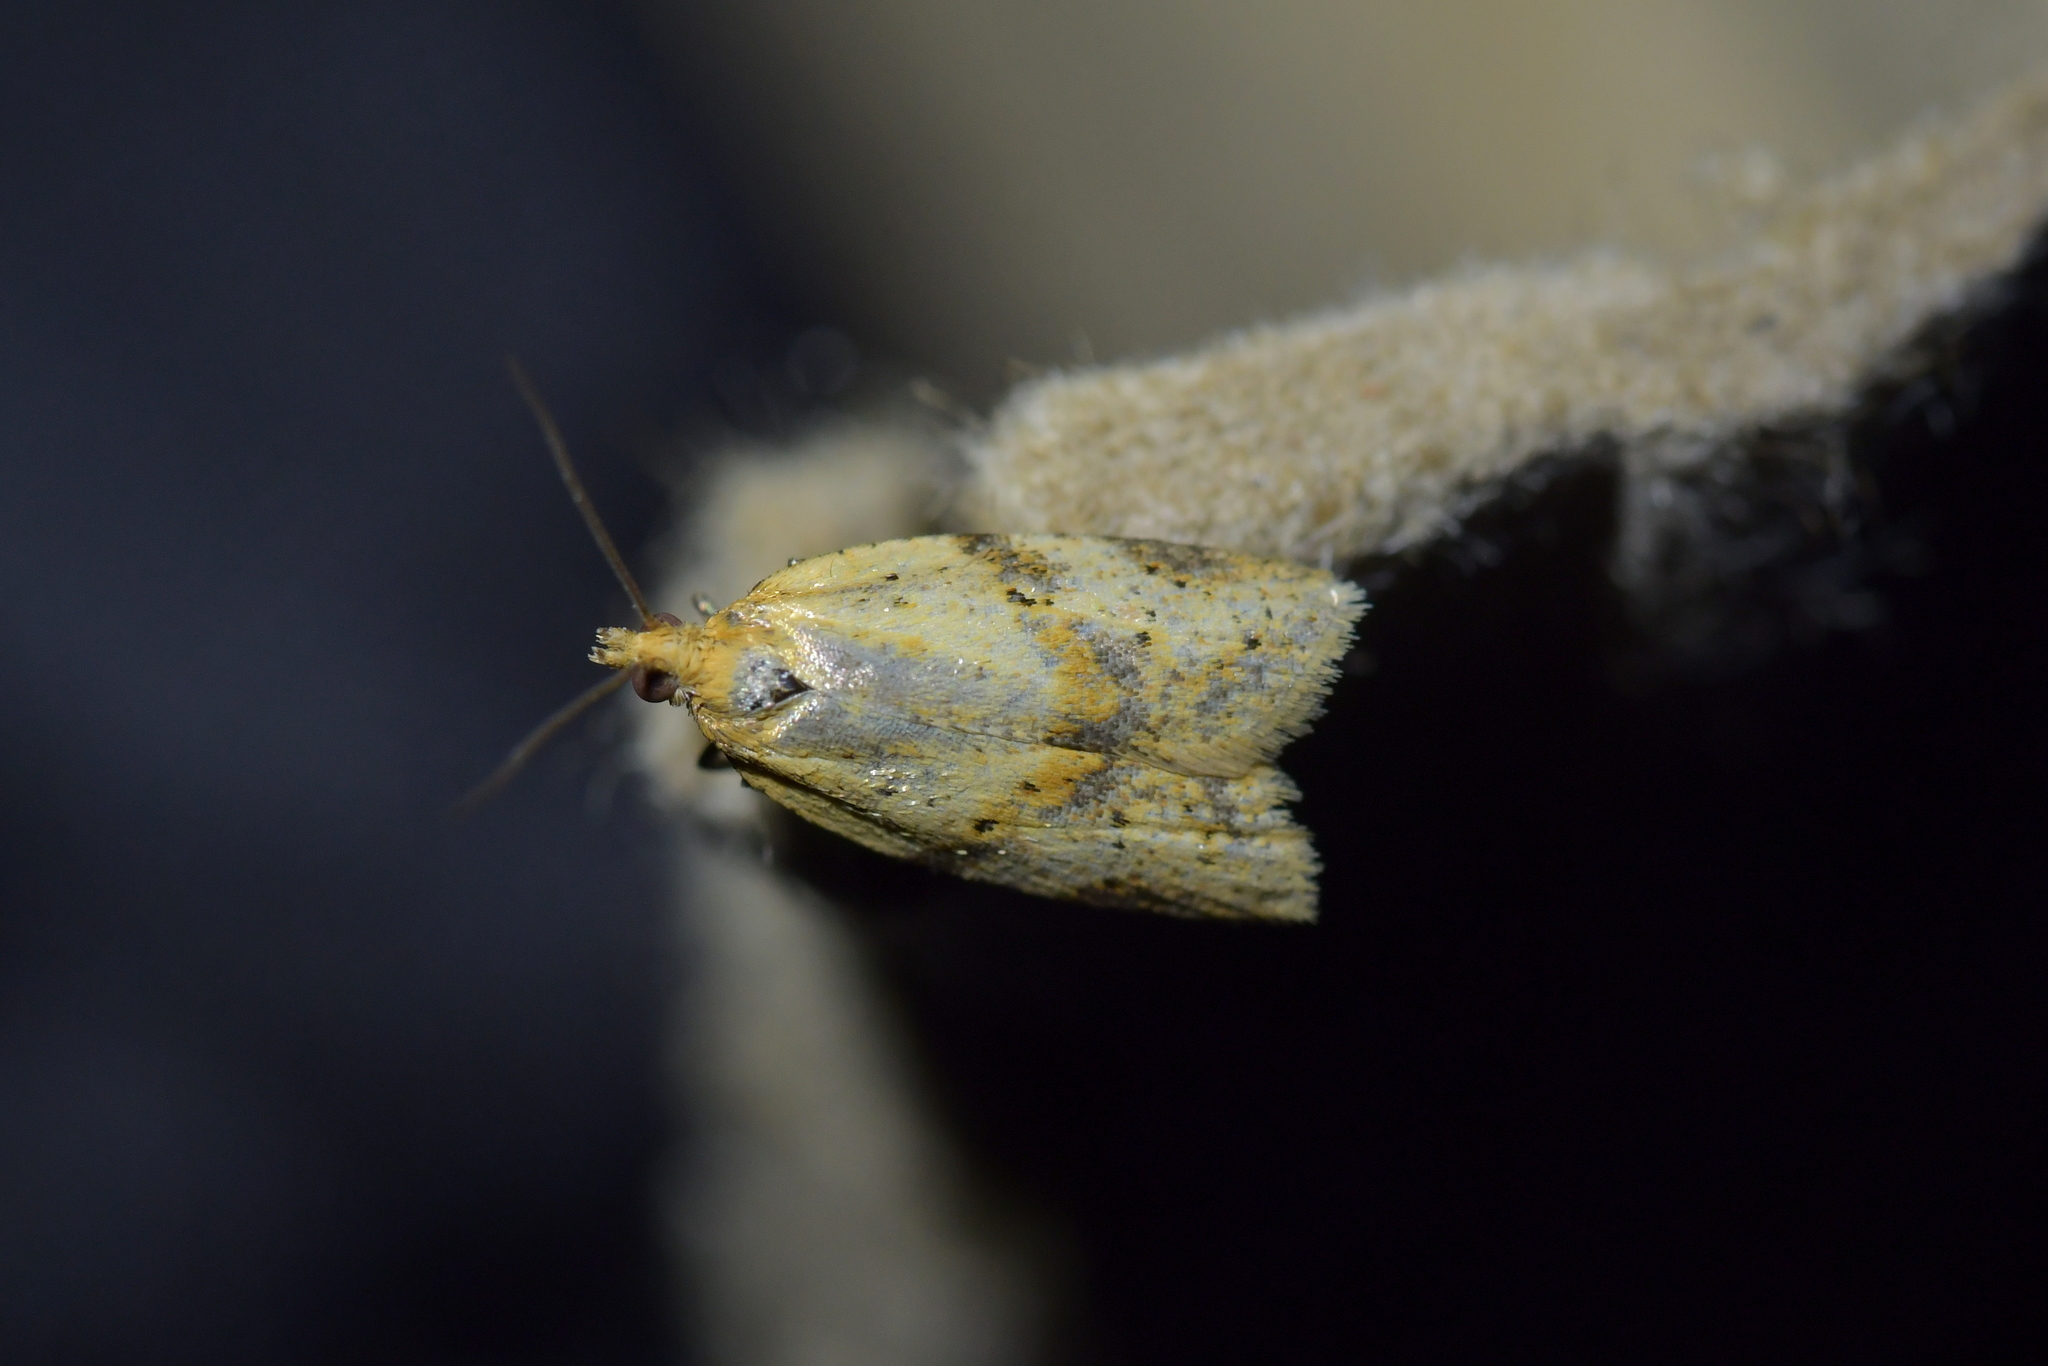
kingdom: Animalia
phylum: Arthropoda
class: Insecta
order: Lepidoptera
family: Tortricidae
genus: Clepsis
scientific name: Clepsis
